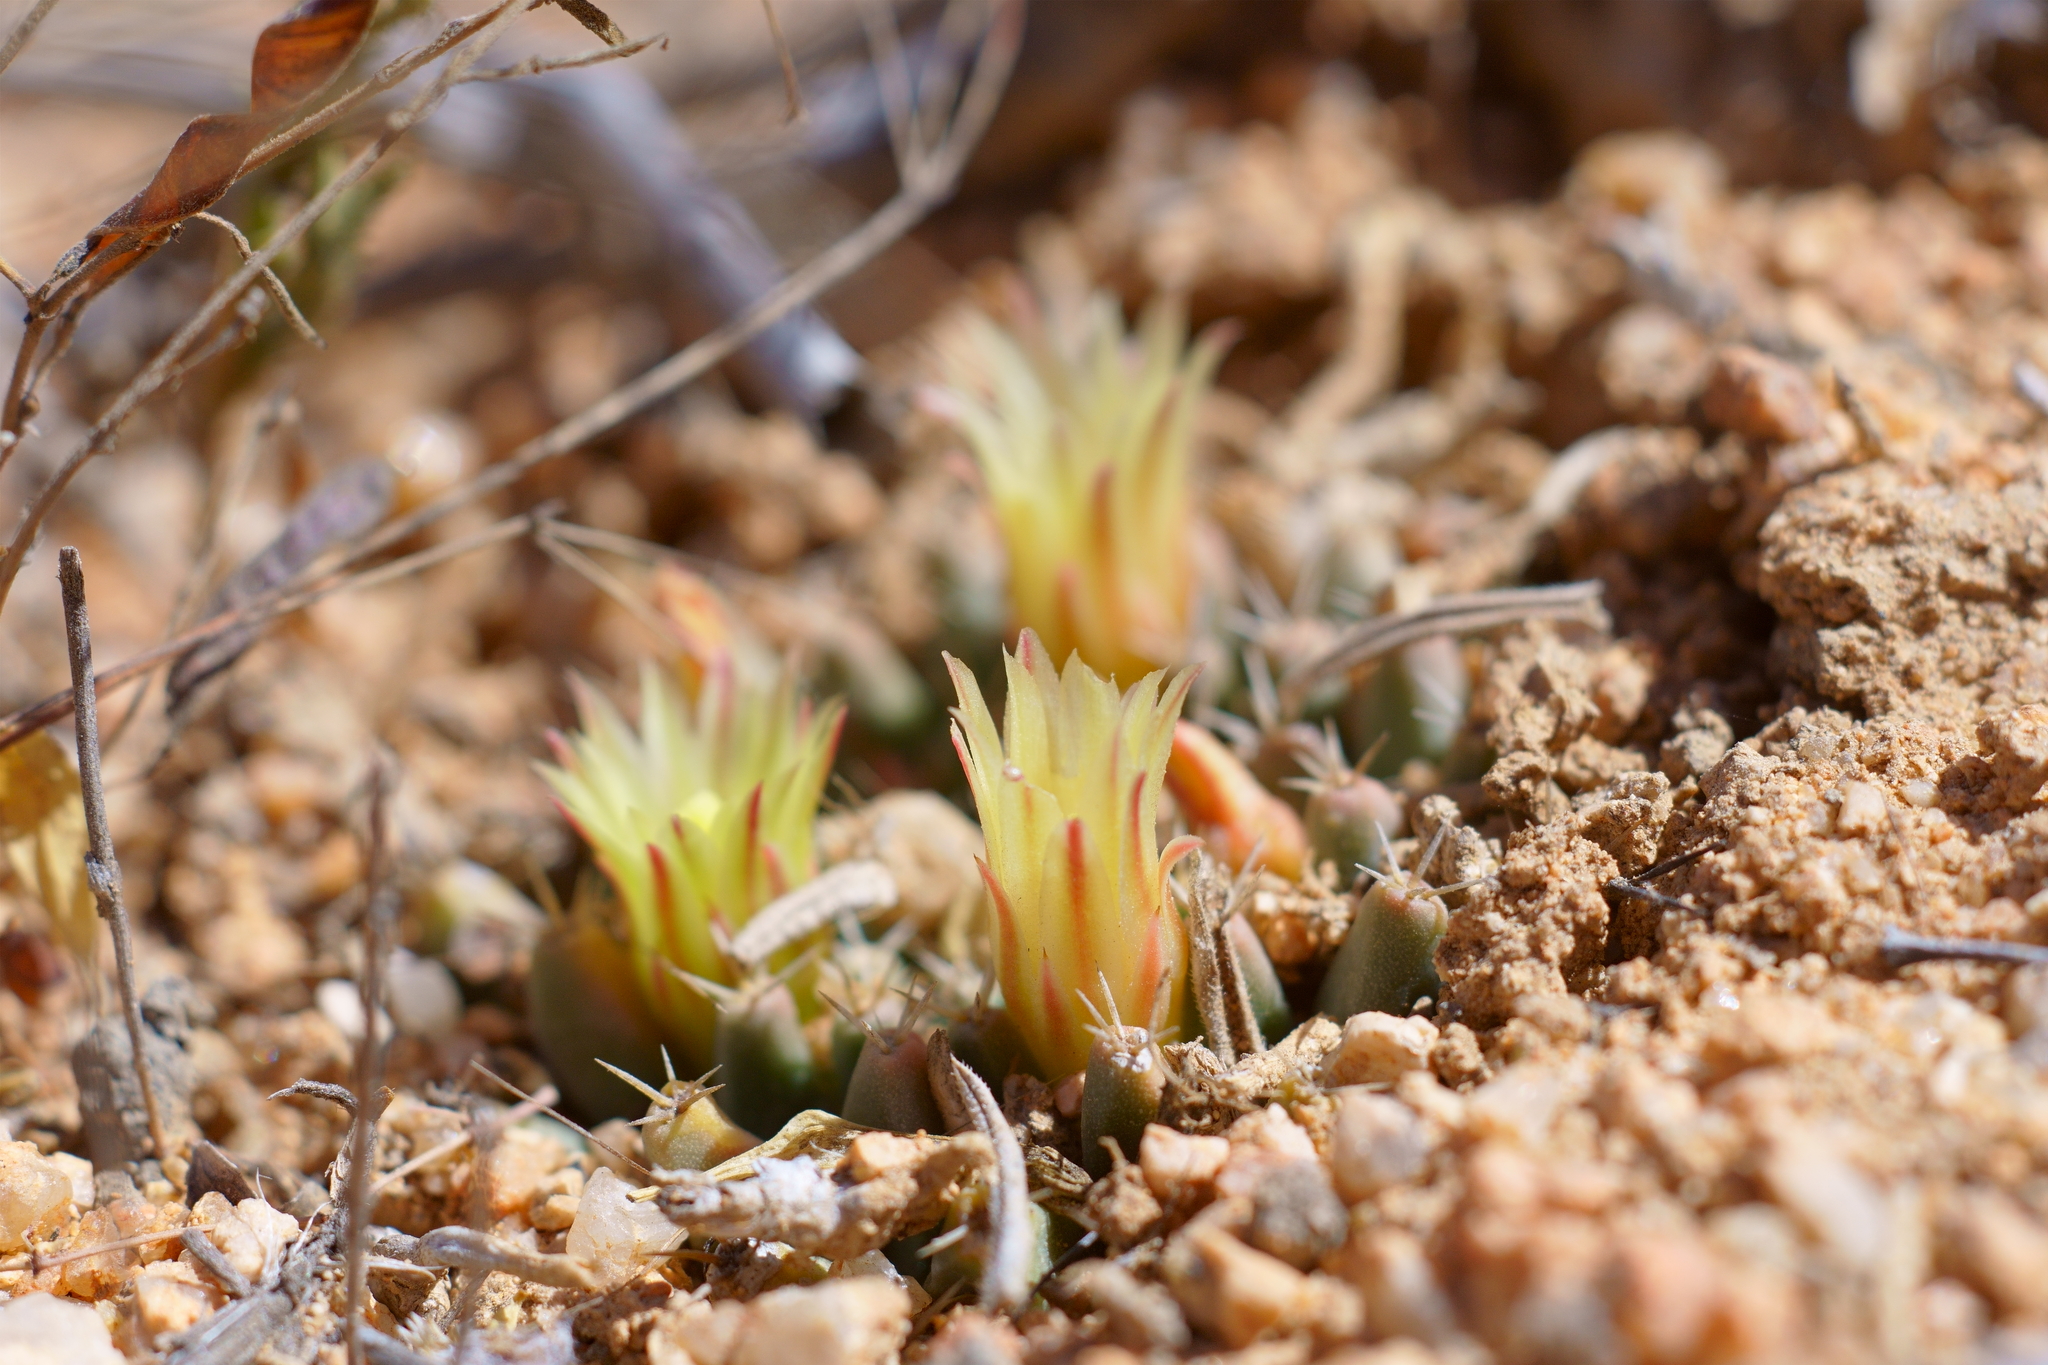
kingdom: Plantae
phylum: Tracheophyta
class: Magnoliopsida
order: Caryophyllales
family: Cactaceae
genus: Mammillaria
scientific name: Mammillaria peninsularis
